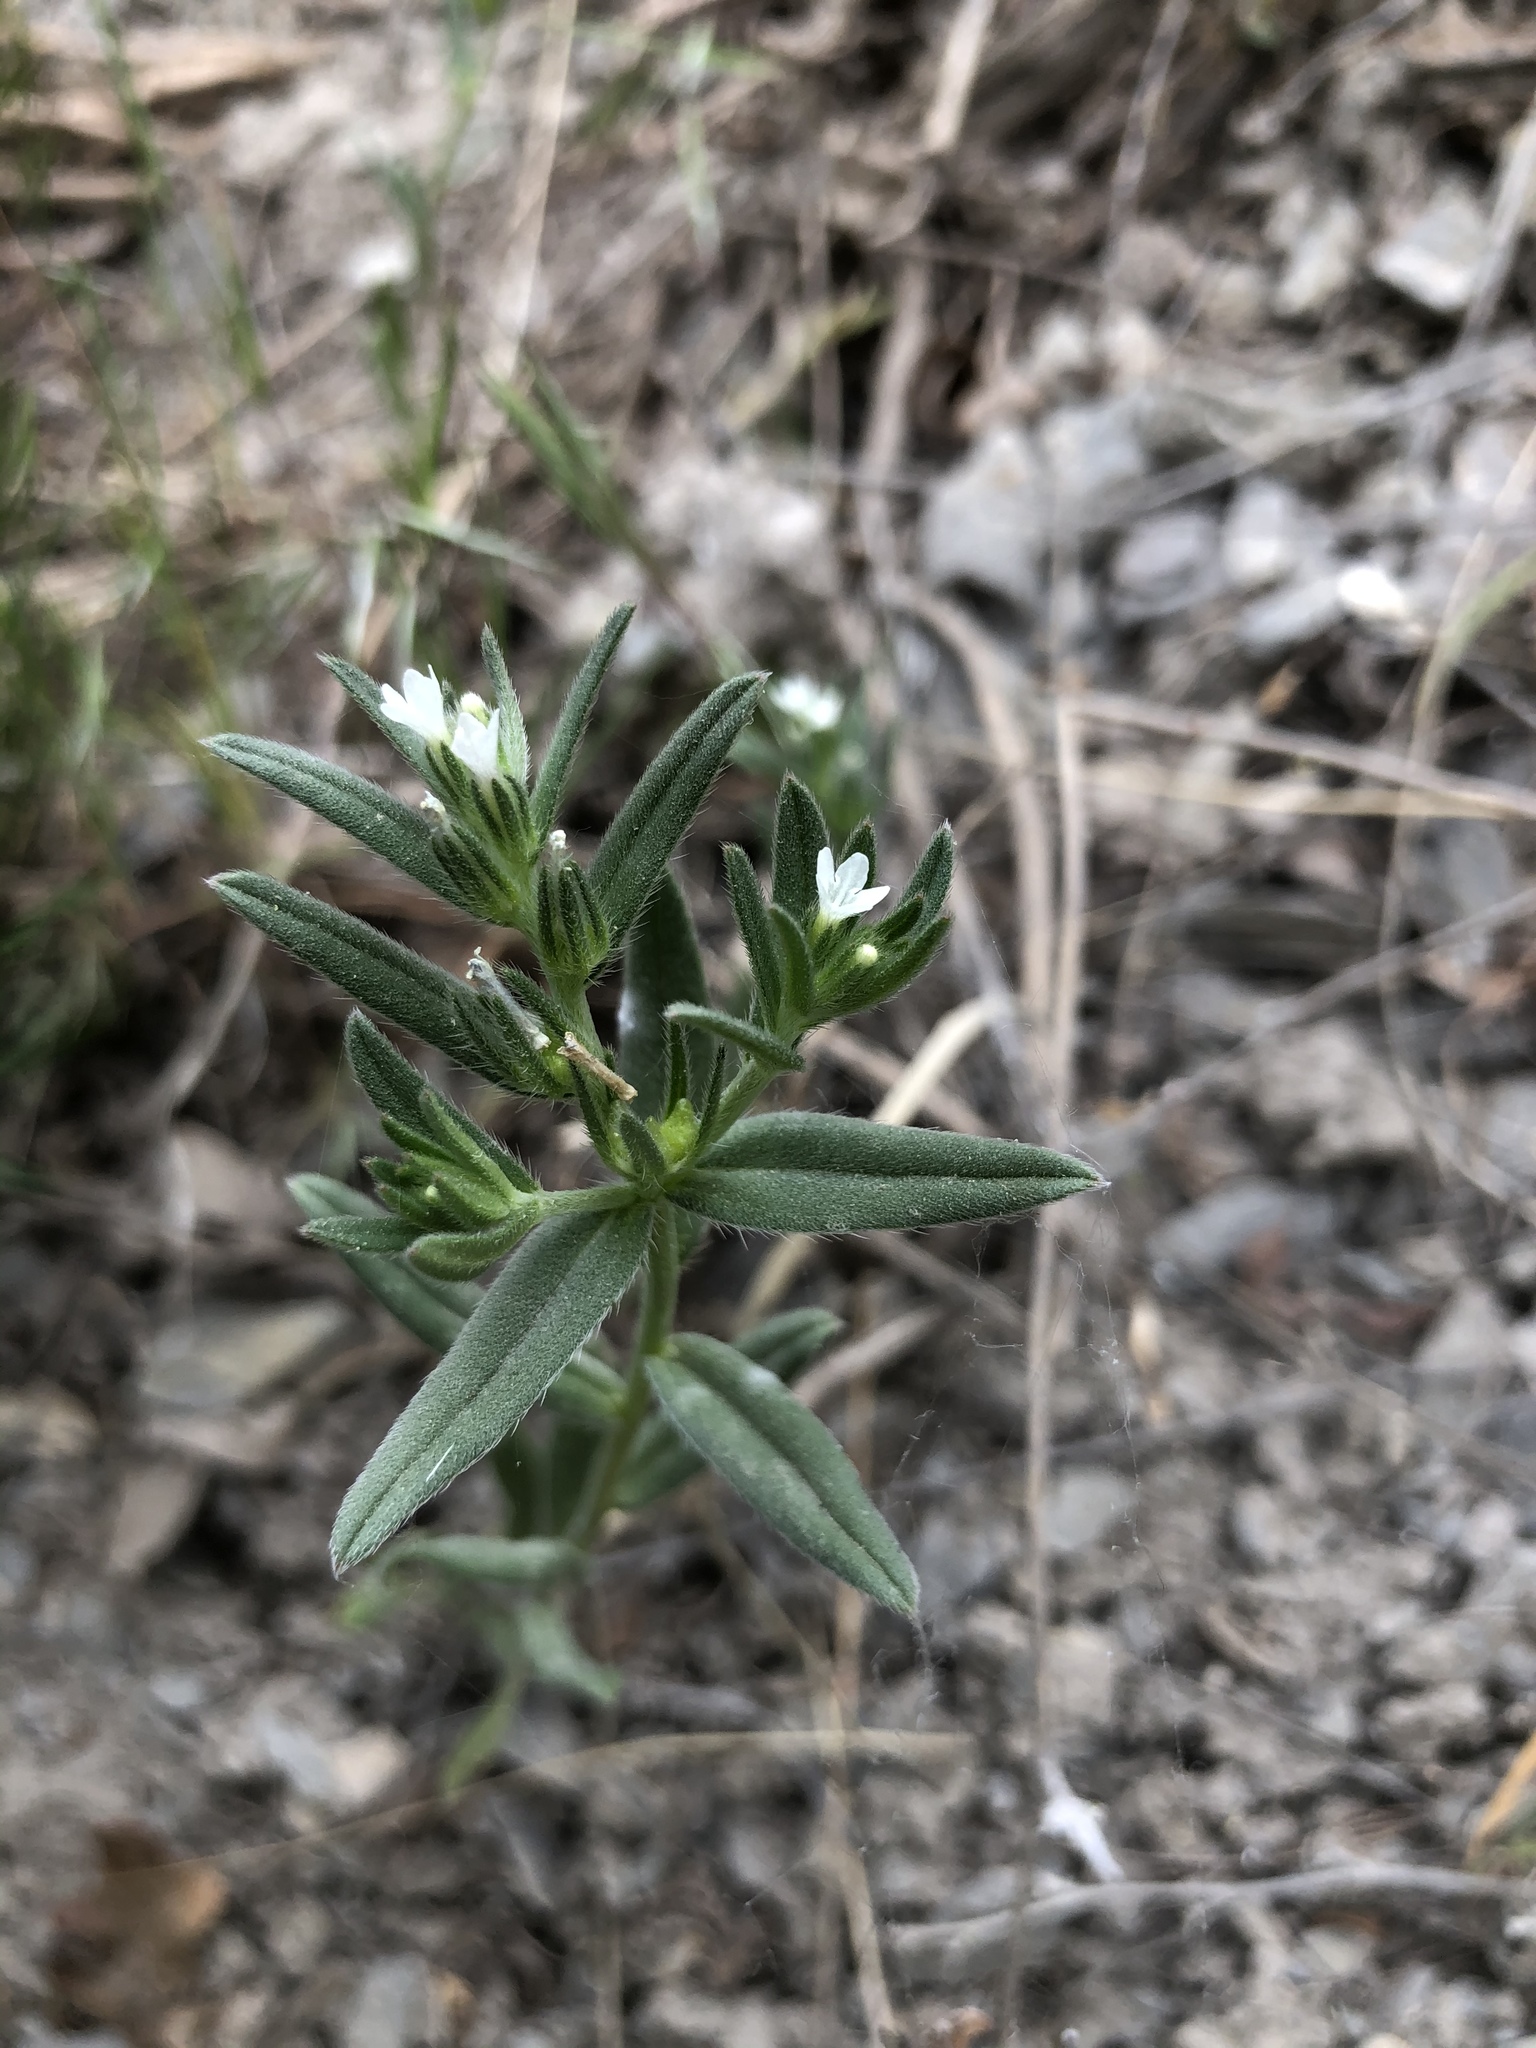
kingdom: Plantae
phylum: Tracheophyta
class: Magnoliopsida
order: Boraginales
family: Boraginaceae
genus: Buglossoides
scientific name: Buglossoides arvensis
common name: Corn gromwell
